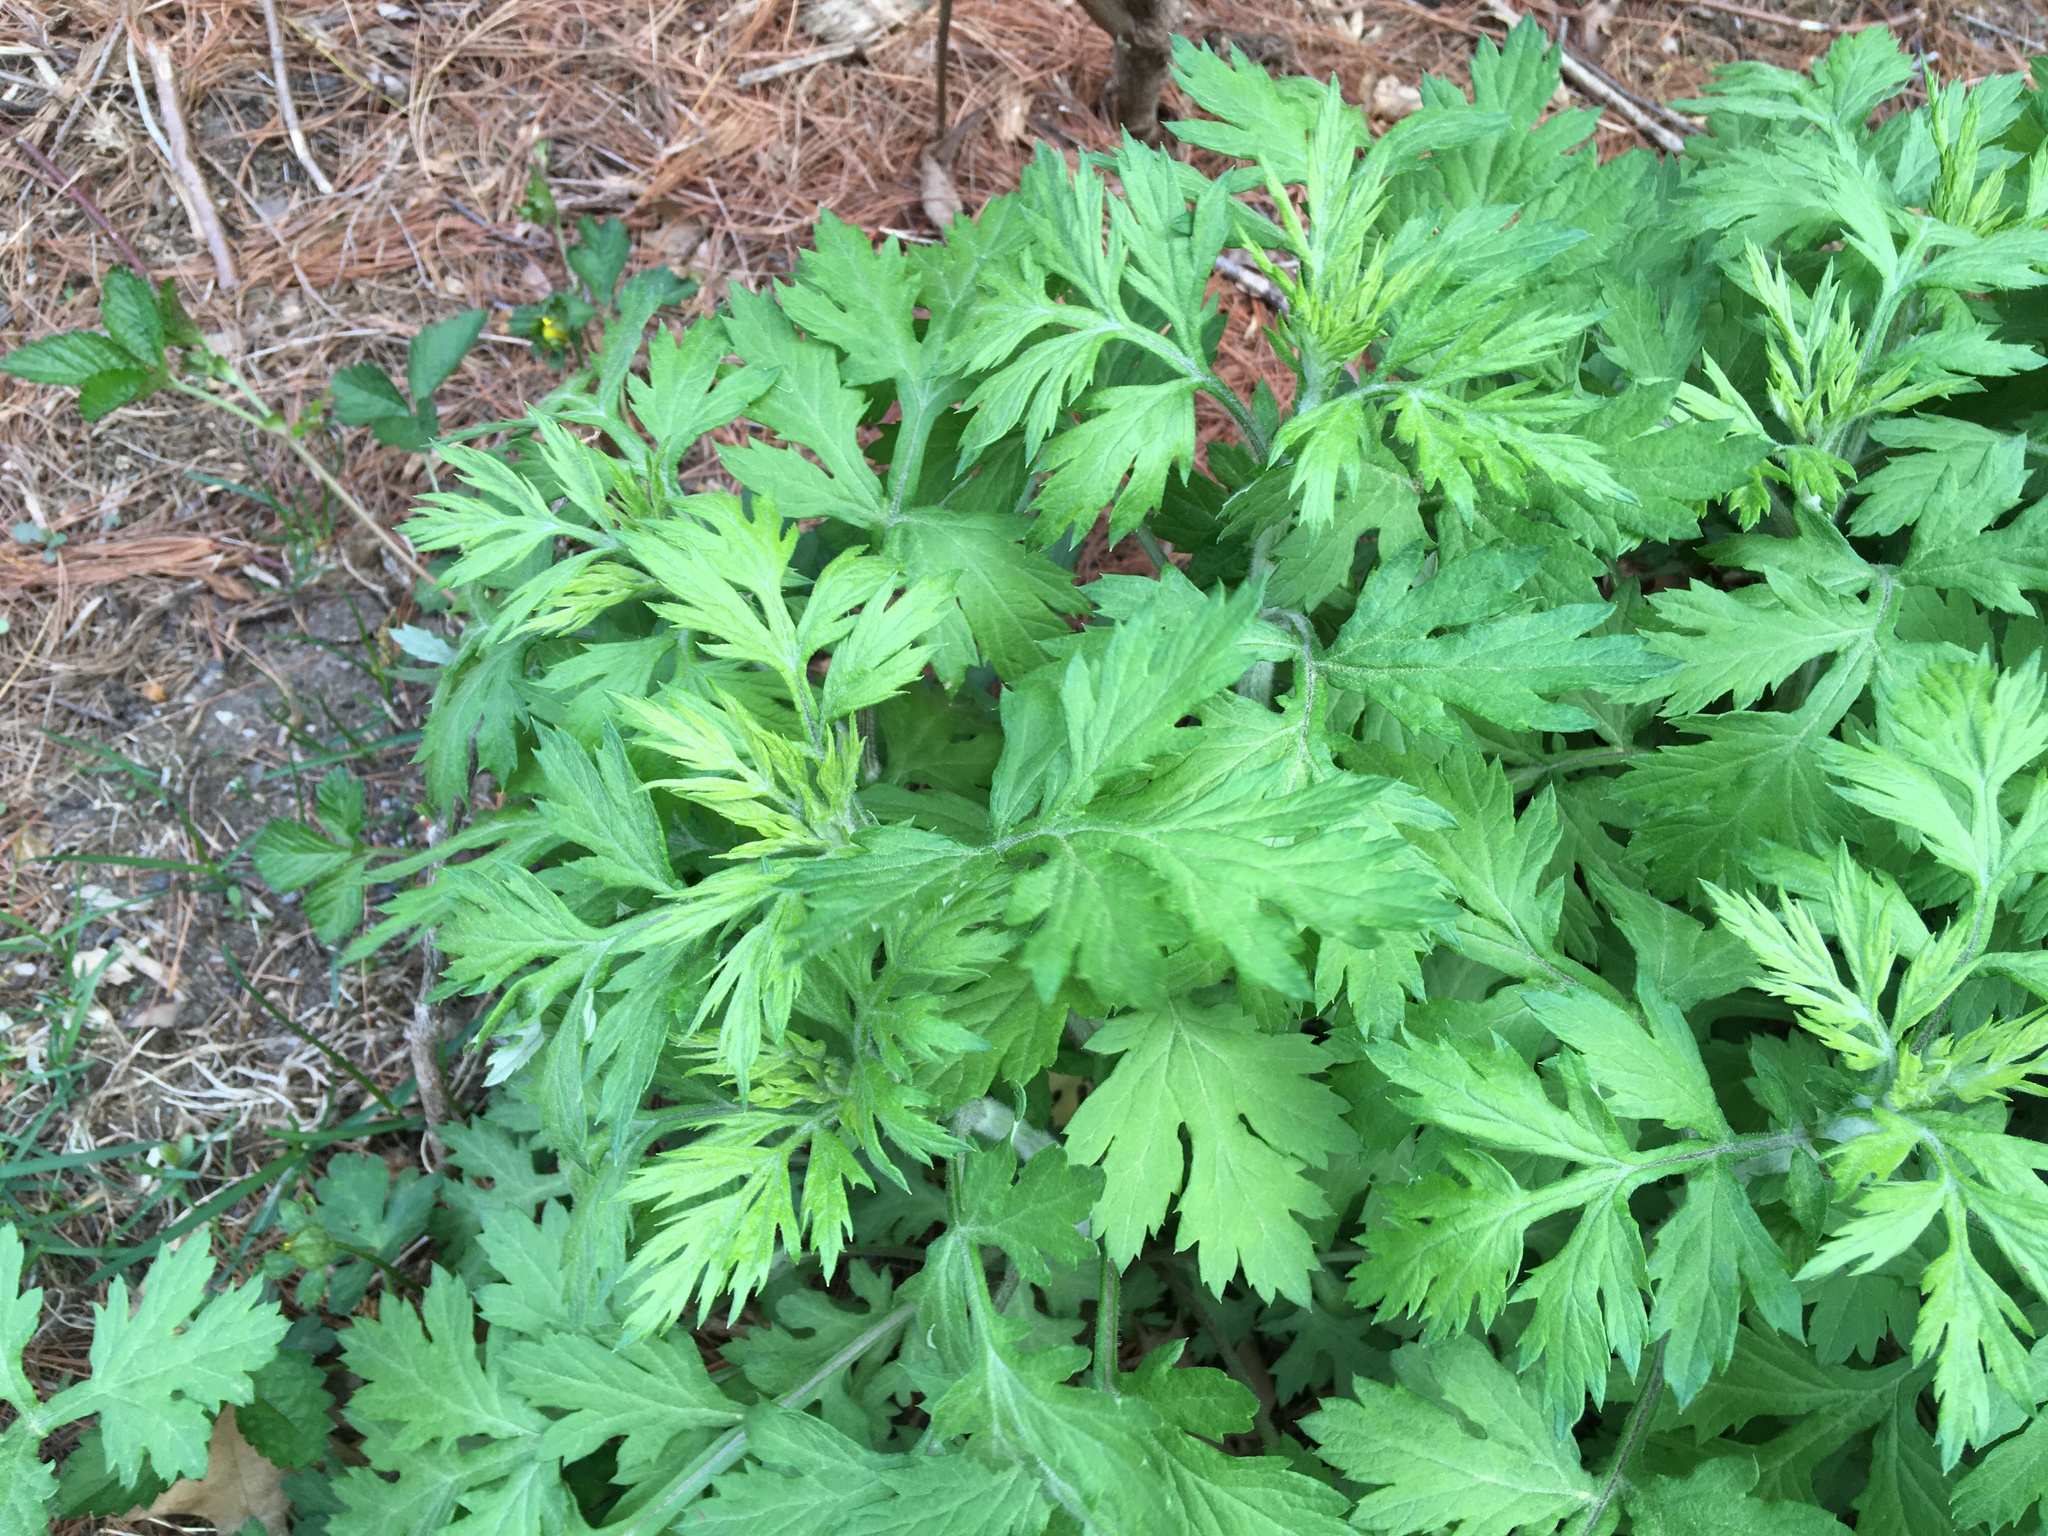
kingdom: Plantae
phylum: Tracheophyta
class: Magnoliopsida
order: Asterales
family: Asteraceae
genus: Artemisia
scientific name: Artemisia vulgaris
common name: Mugwort
